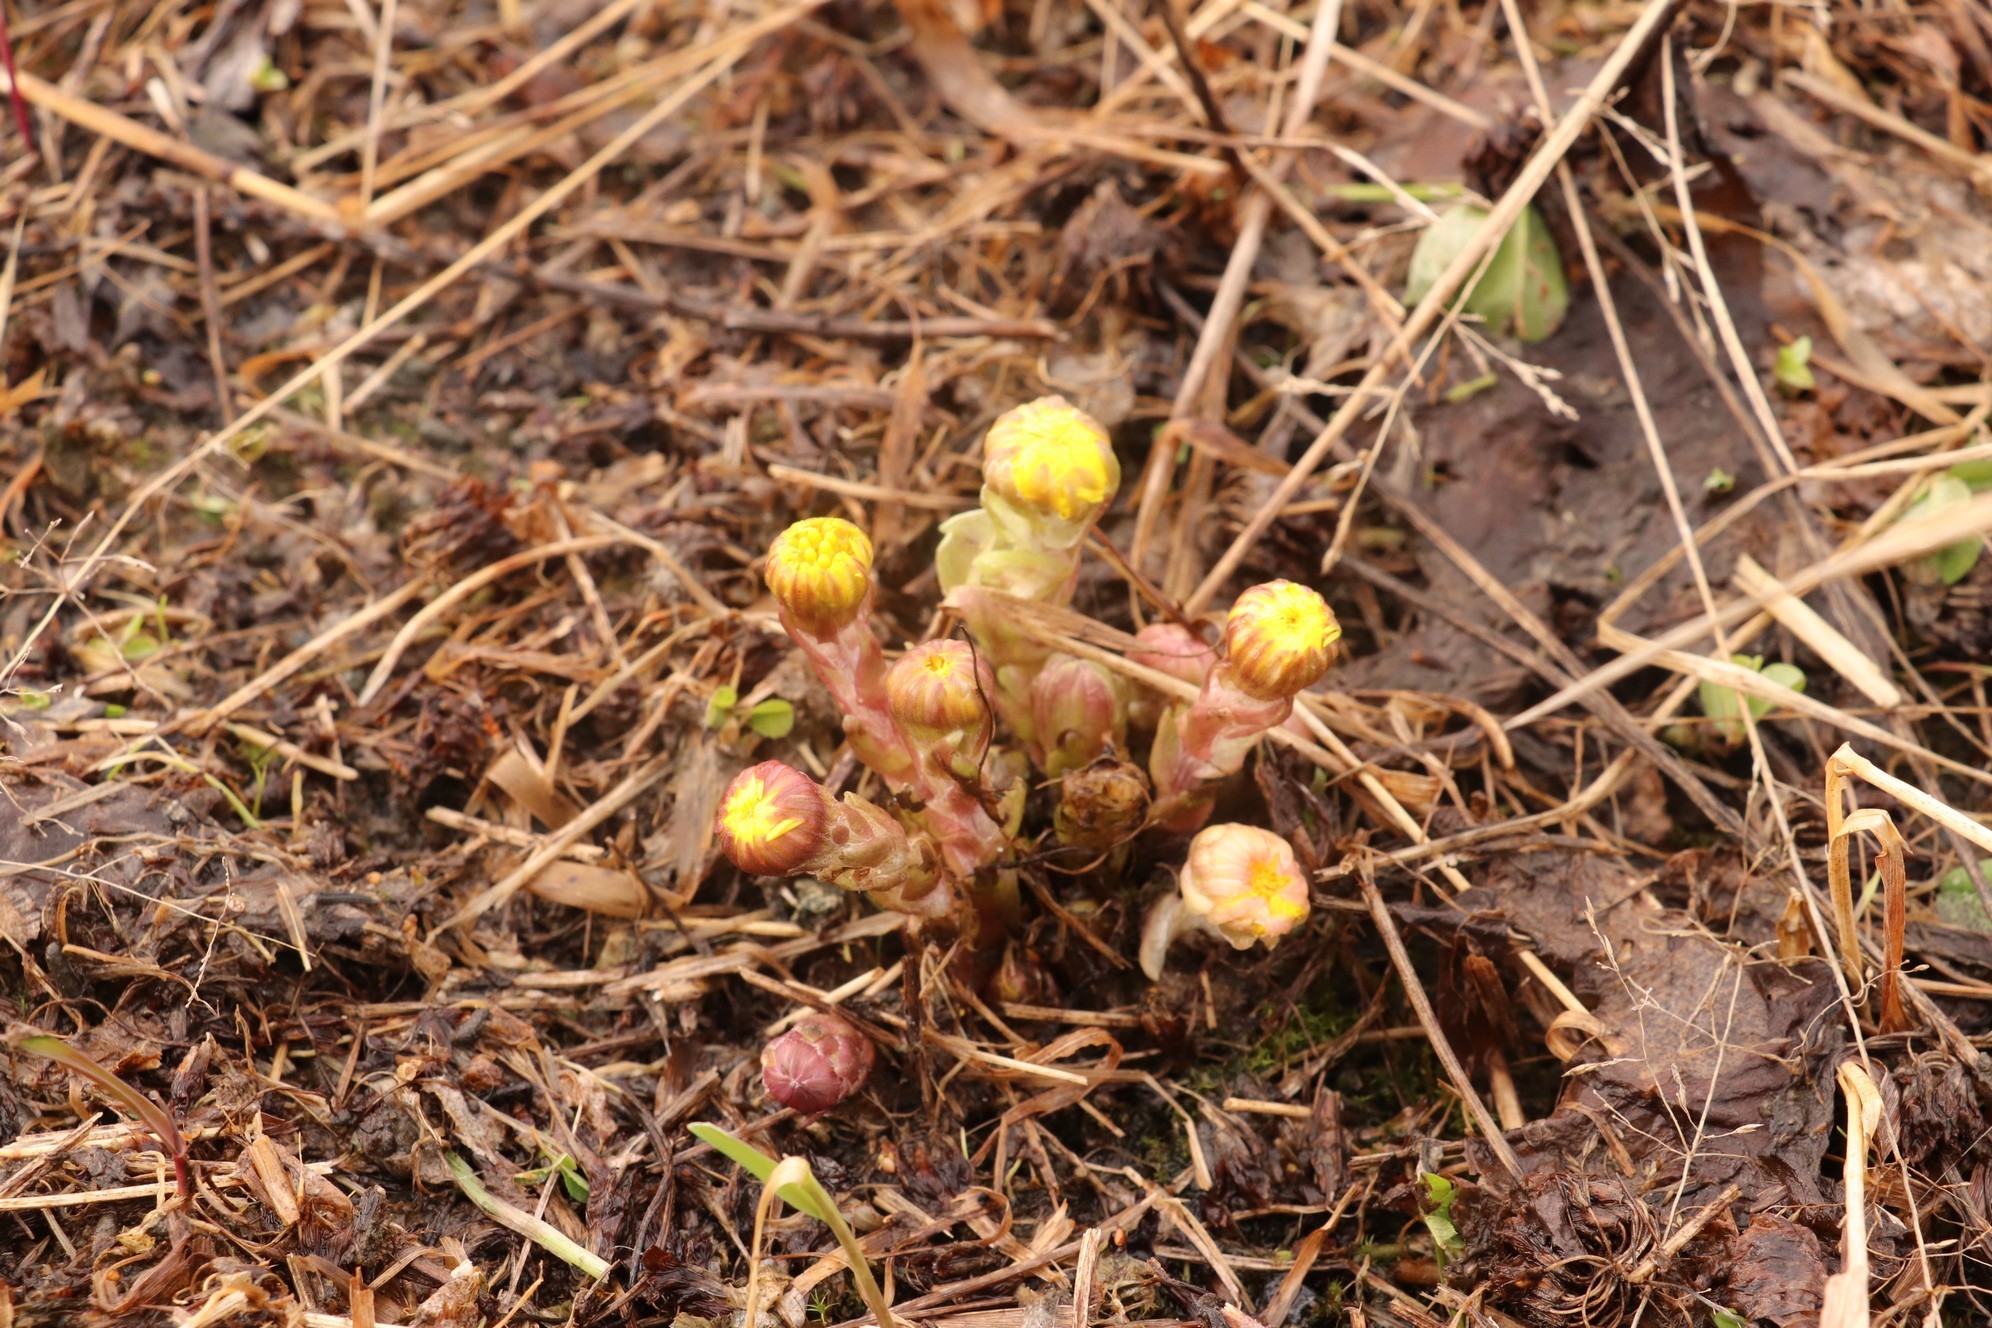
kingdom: Plantae
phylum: Tracheophyta
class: Magnoliopsida
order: Asterales
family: Asteraceae
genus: Tussilago
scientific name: Tussilago farfara
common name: Coltsfoot
